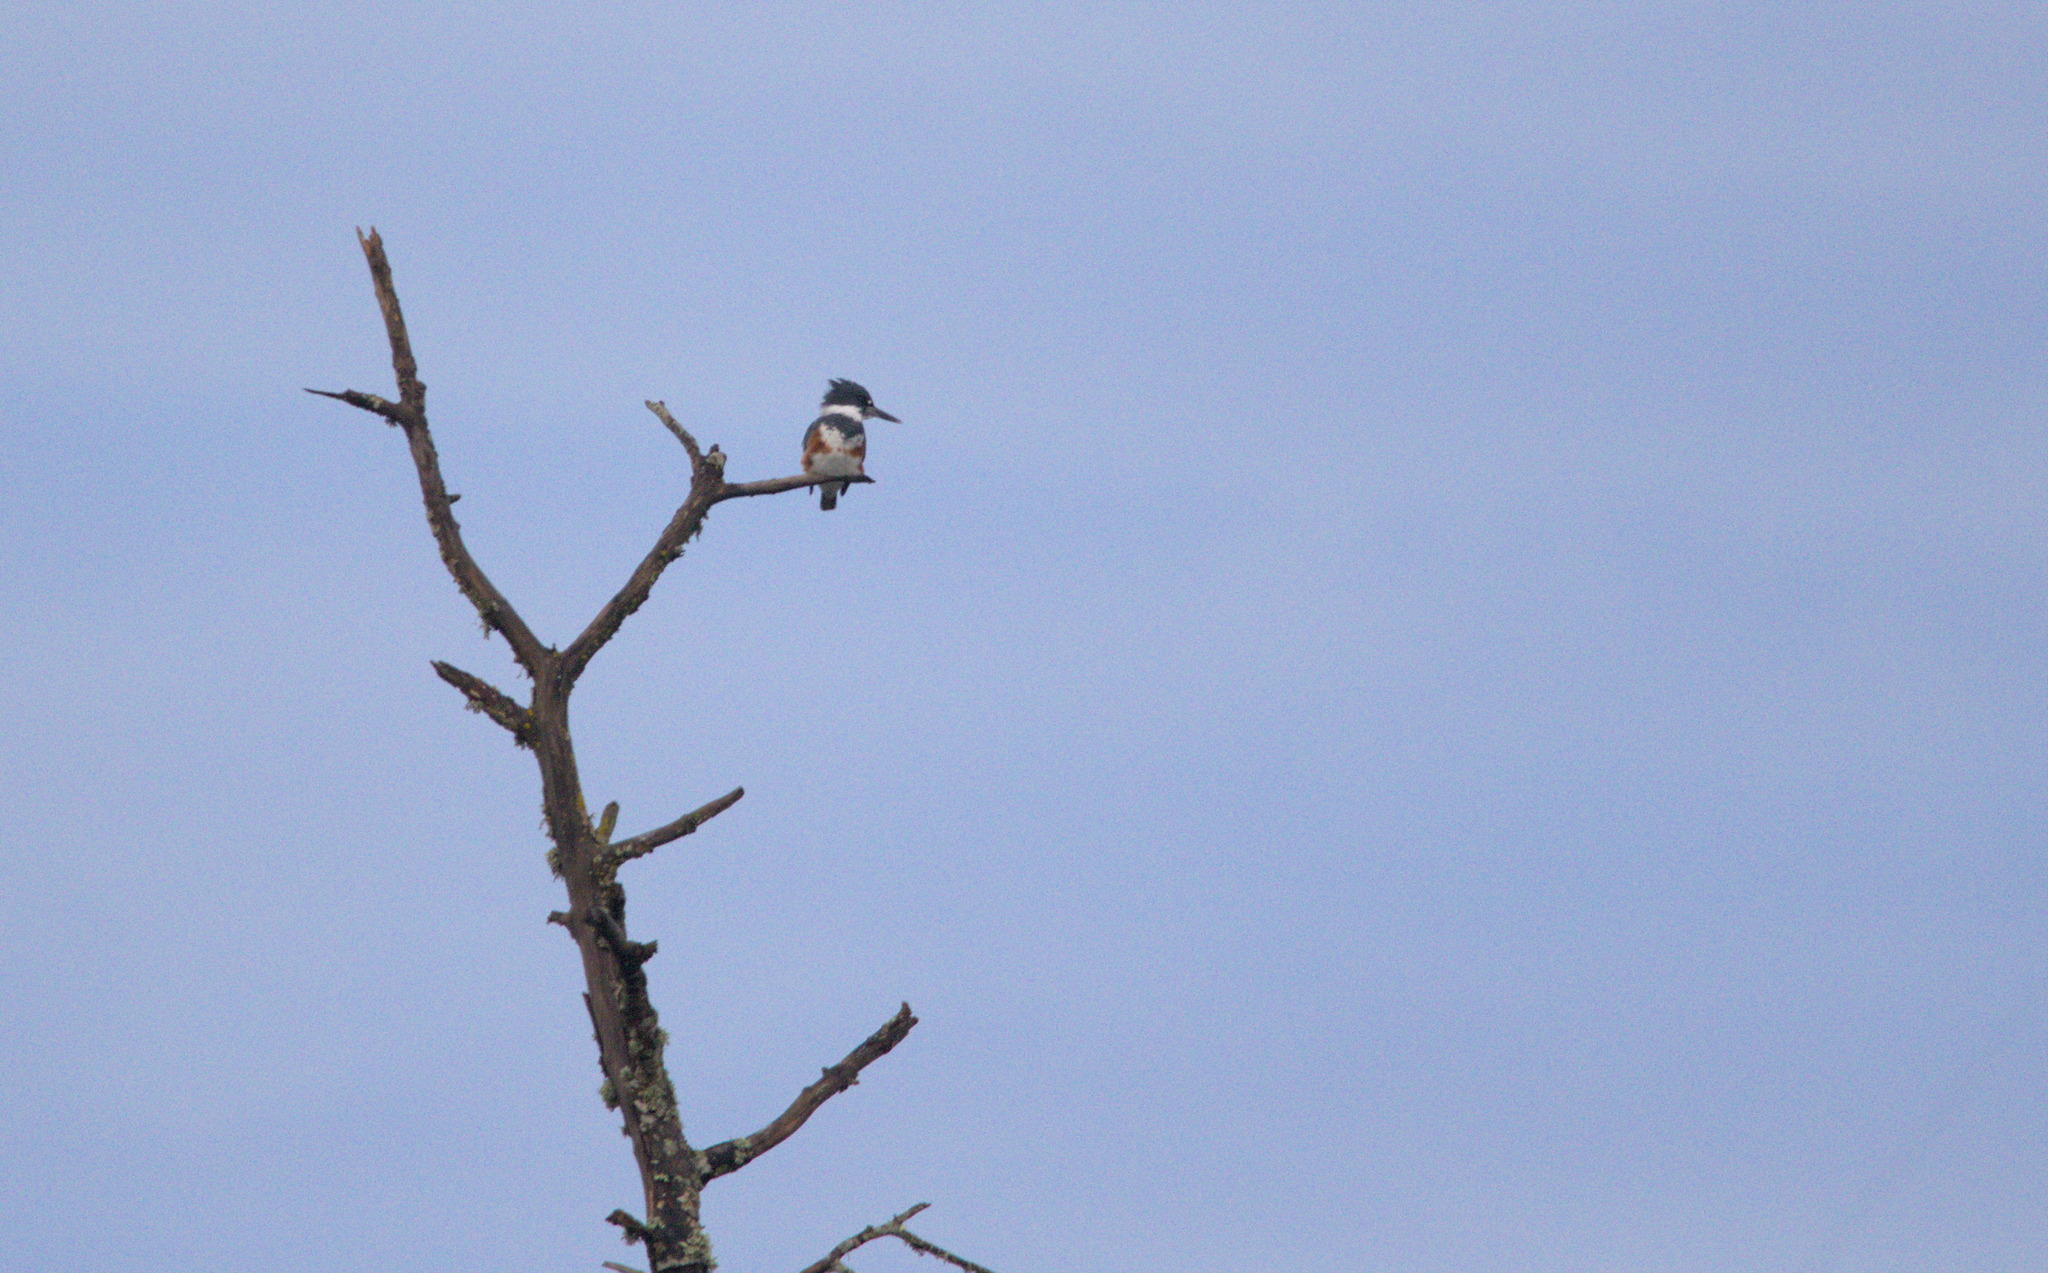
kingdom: Animalia
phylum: Chordata
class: Aves
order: Coraciiformes
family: Alcedinidae
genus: Megaceryle
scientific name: Megaceryle alcyon
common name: Belted kingfisher
